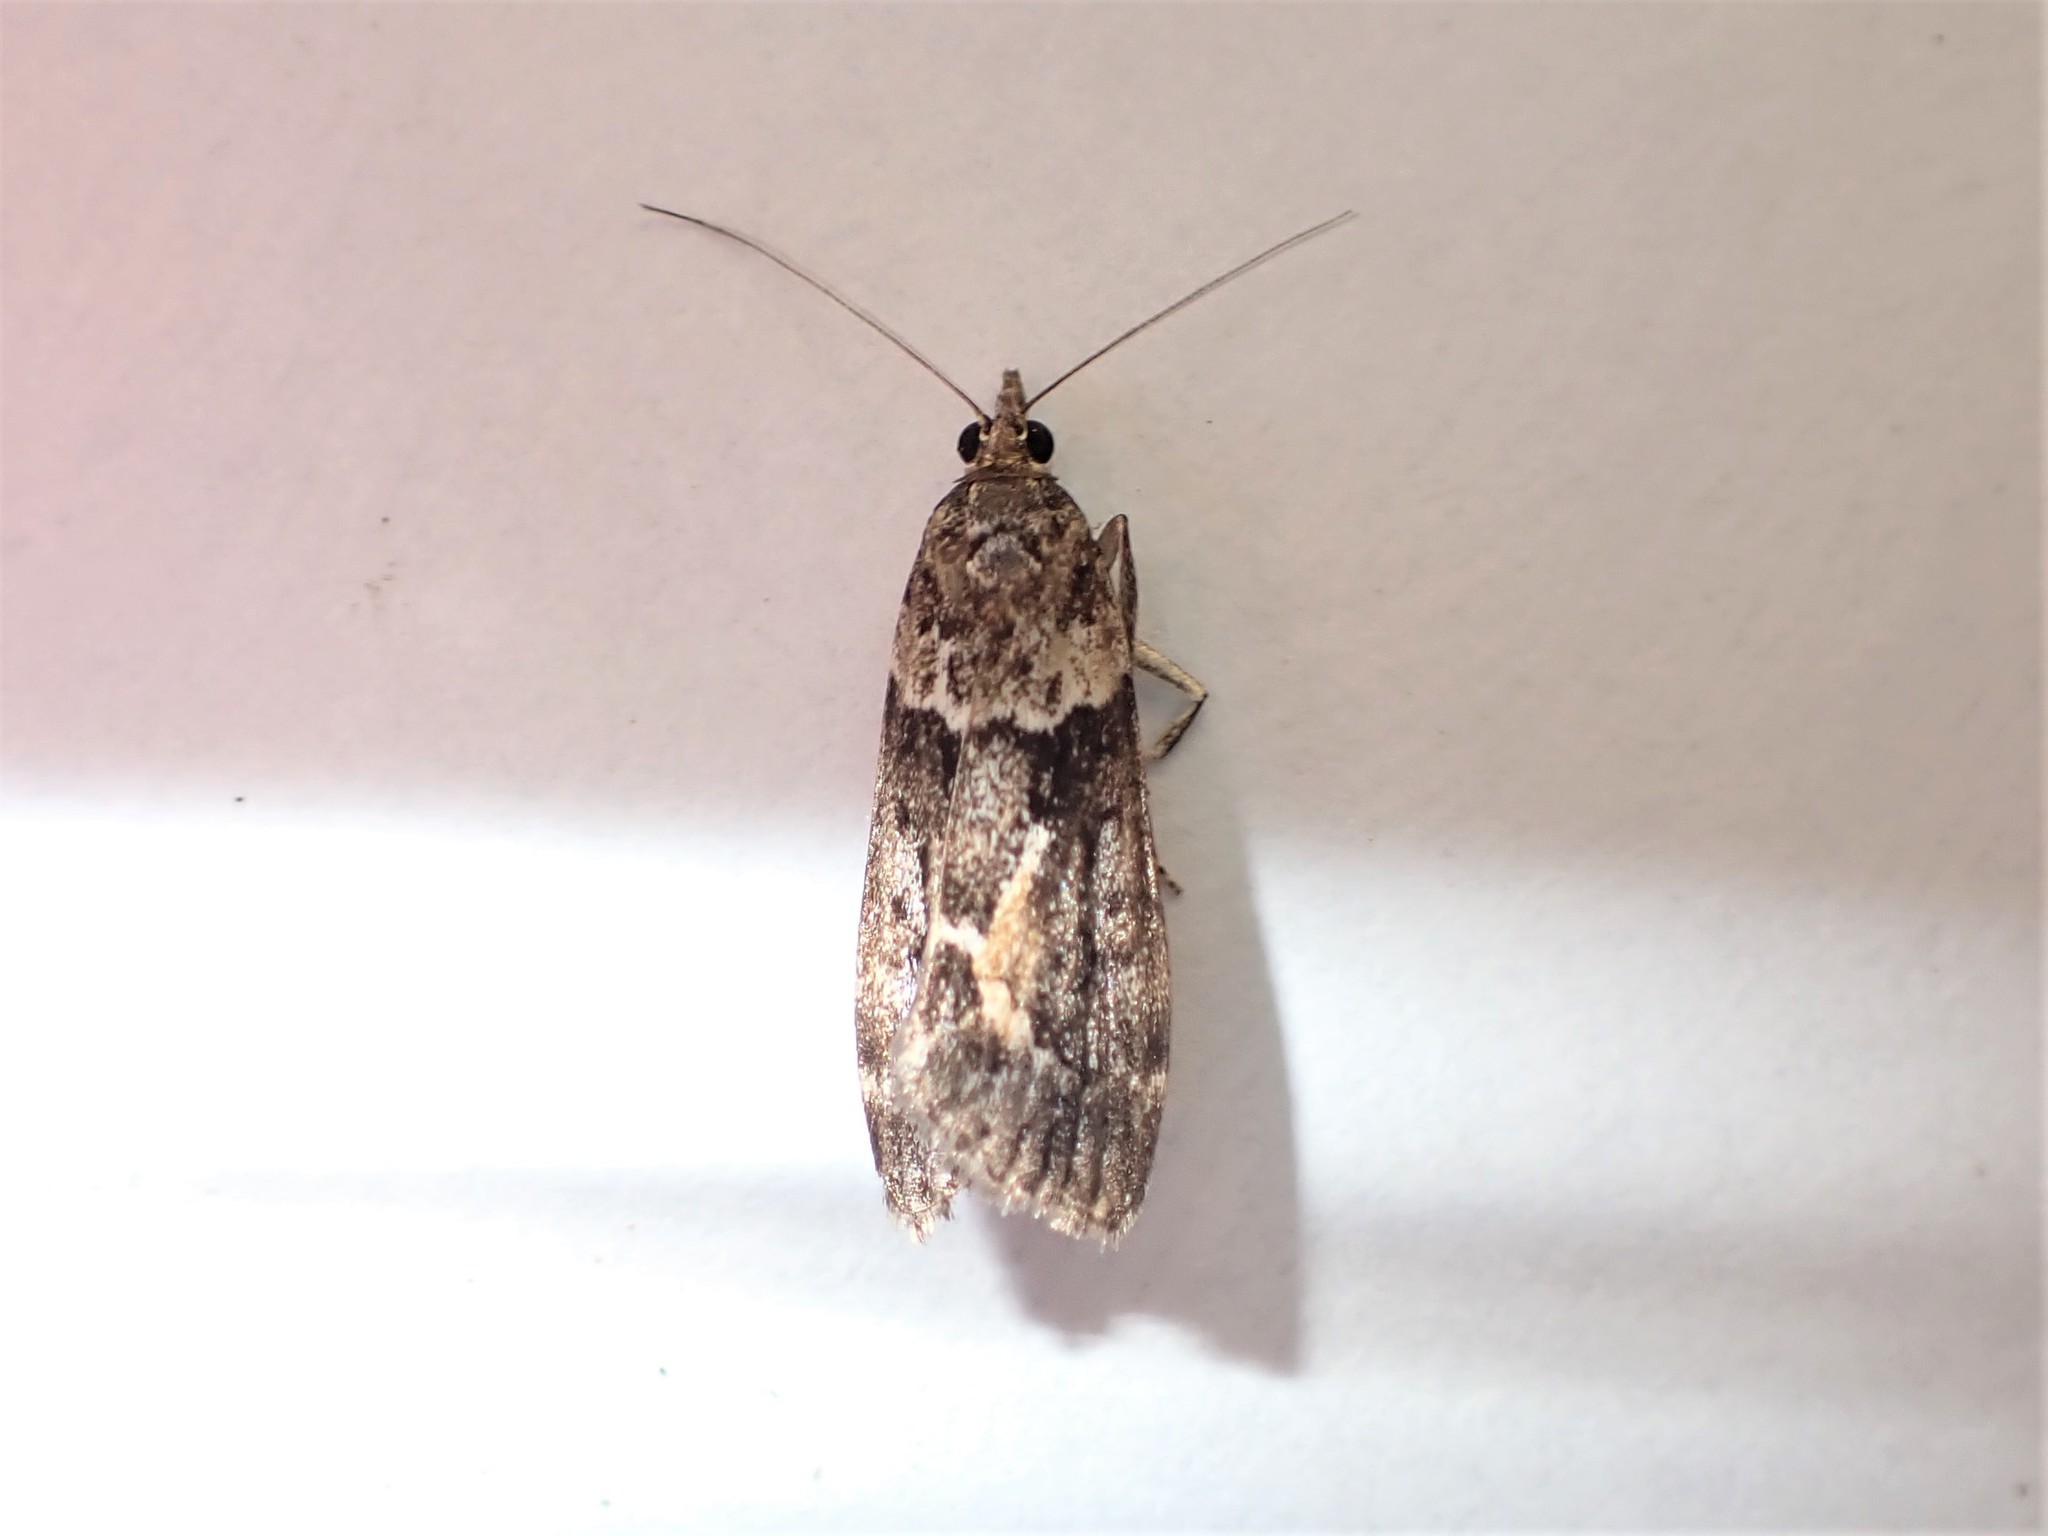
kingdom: Animalia
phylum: Arthropoda
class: Insecta
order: Lepidoptera
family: Crambidae
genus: Eudonia
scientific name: Eudonia submarginalis
